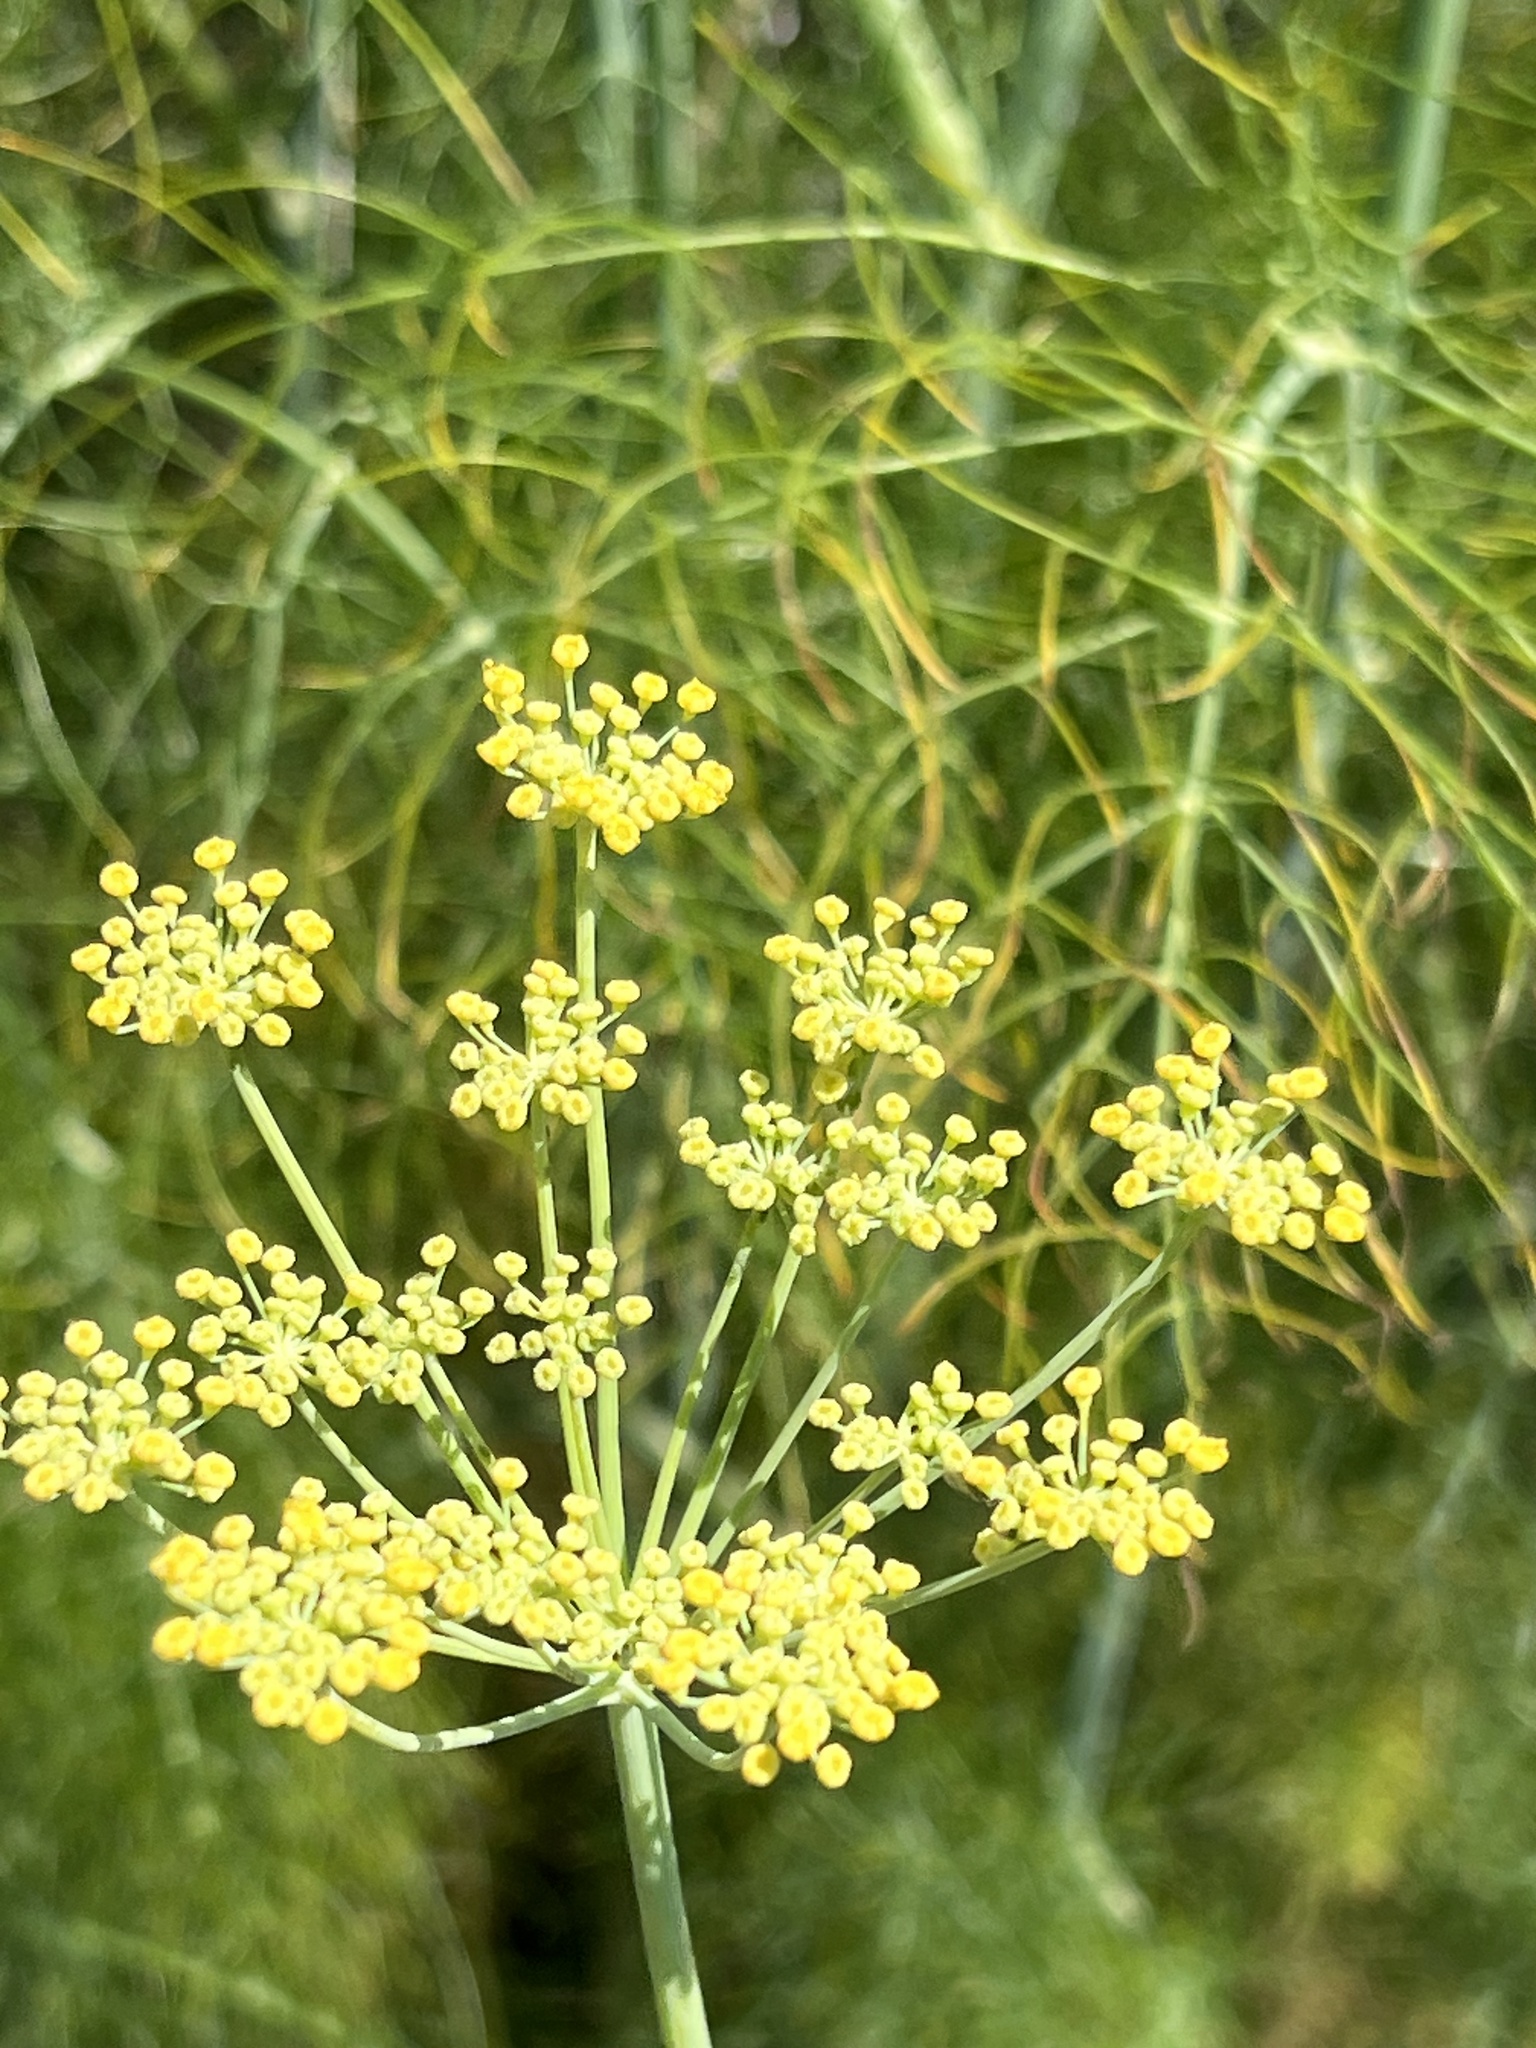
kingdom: Plantae
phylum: Tracheophyta
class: Magnoliopsida
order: Apiales
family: Apiaceae
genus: Foeniculum
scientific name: Foeniculum vulgare
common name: Fennel
